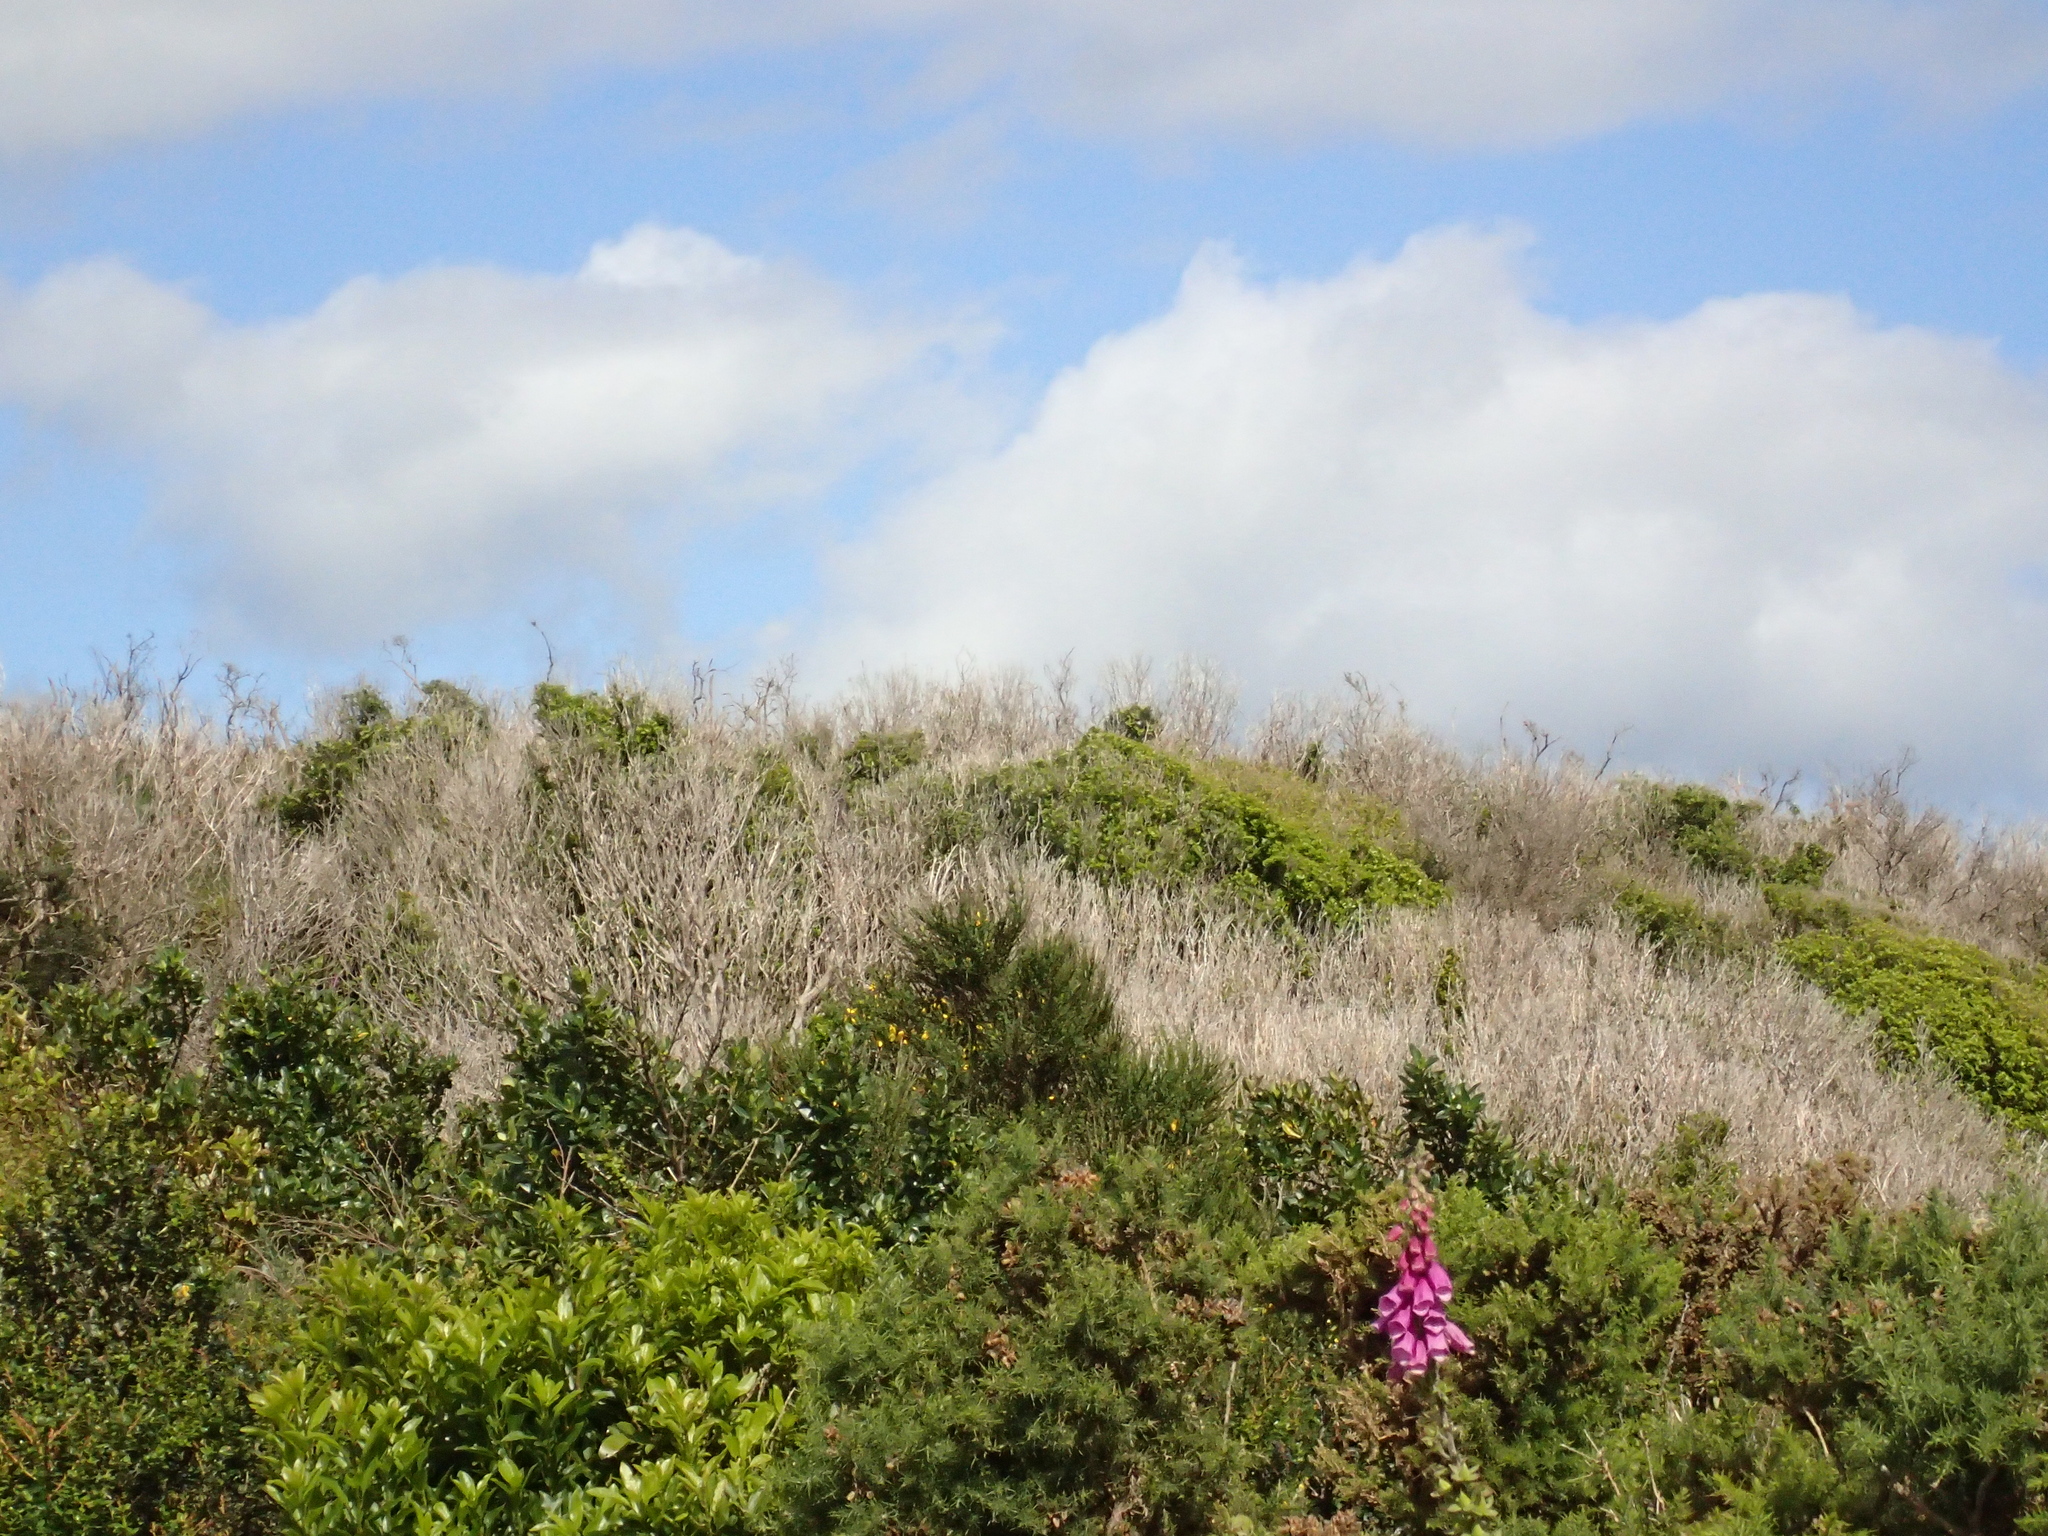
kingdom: Plantae
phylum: Tracheophyta
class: Magnoliopsida
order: Fabales
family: Fabaceae
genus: Ulex
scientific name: Ulex europaeus
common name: Common gorse
